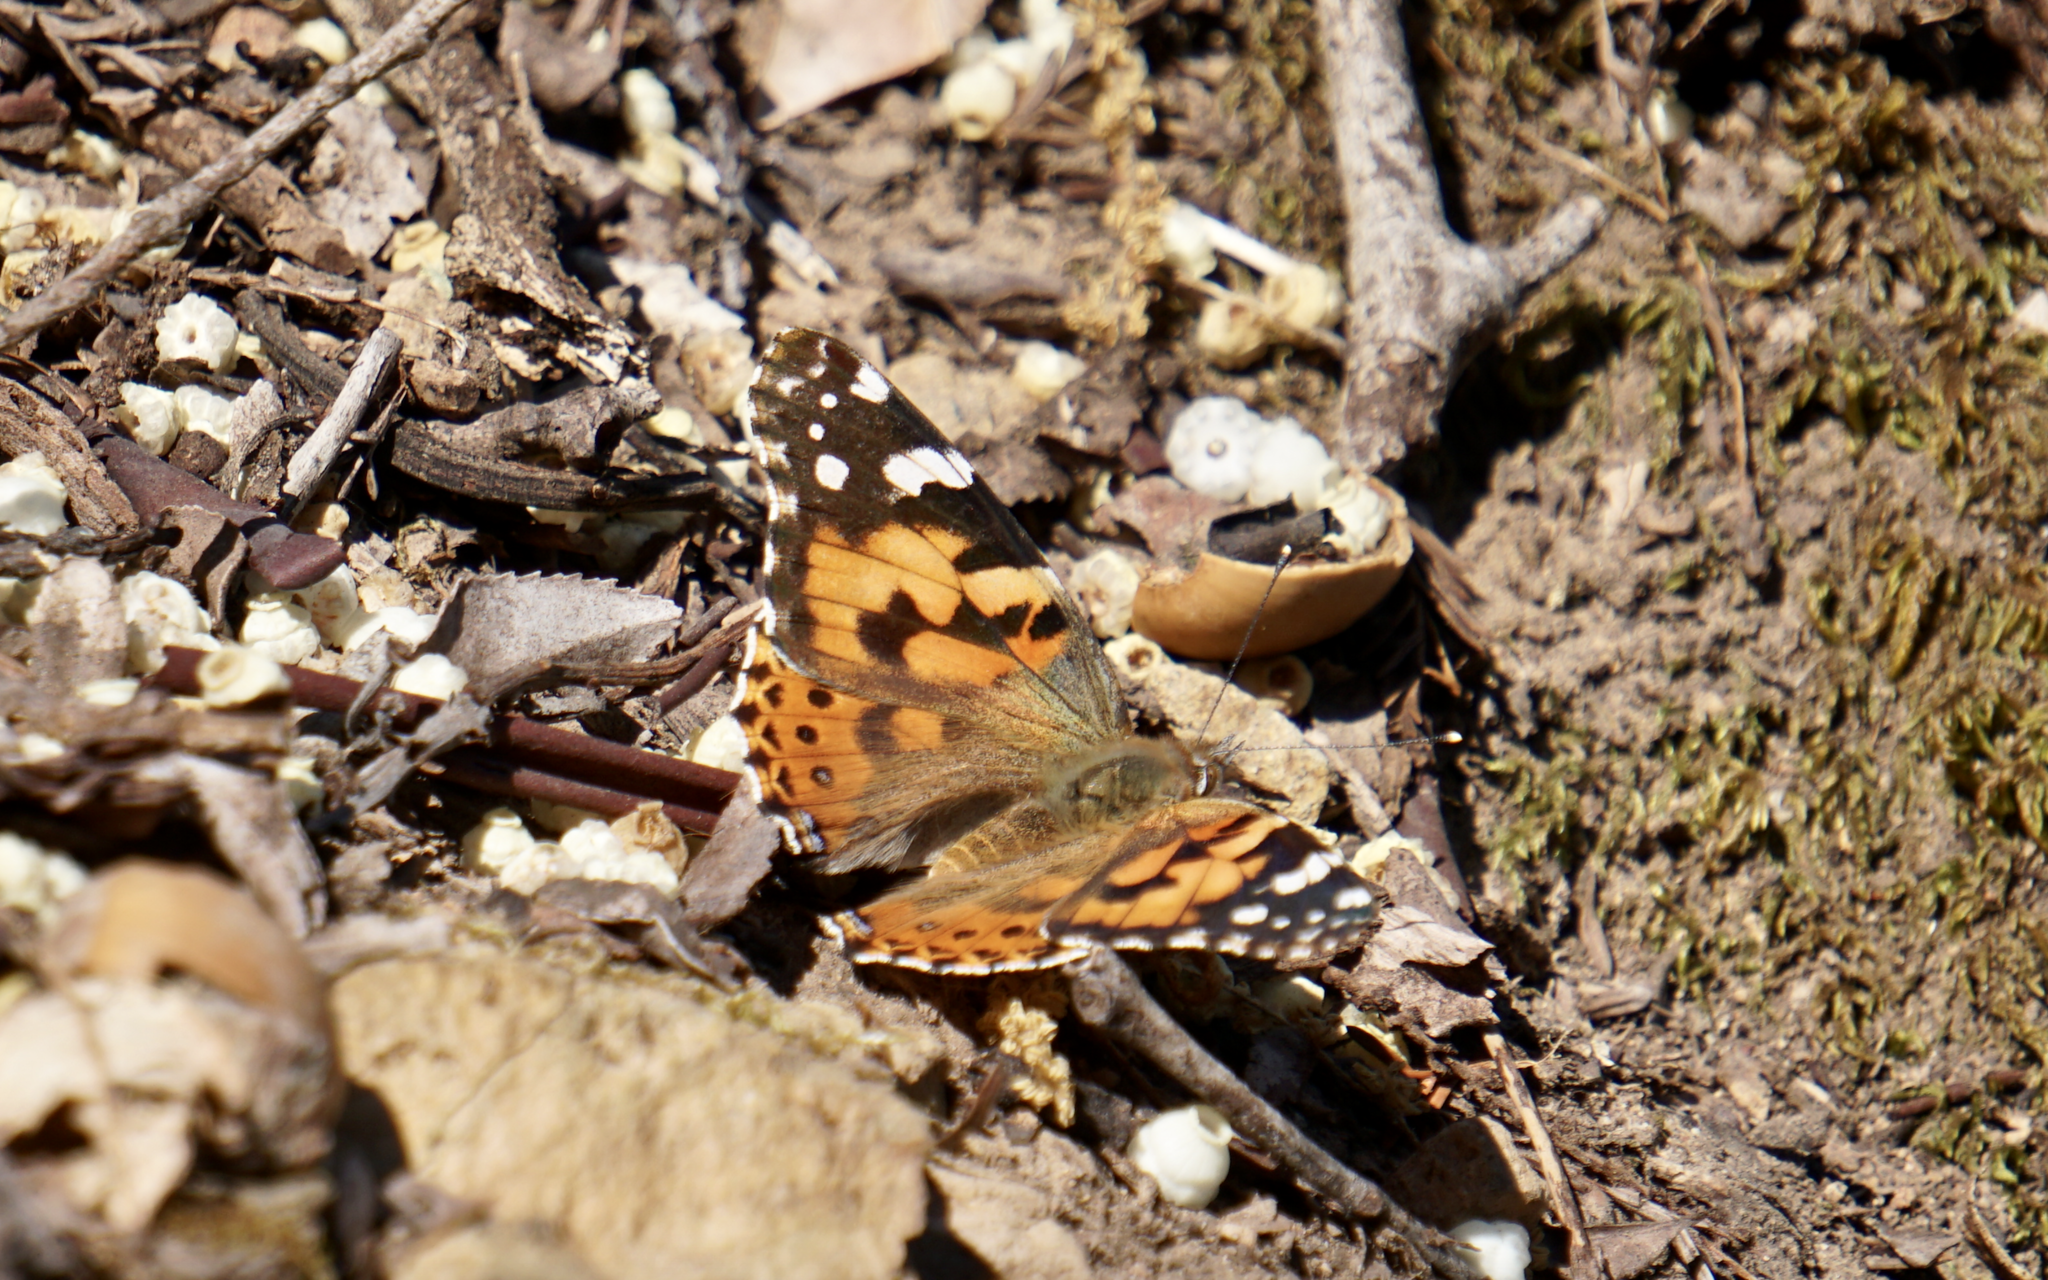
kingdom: Animalia
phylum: Arthropoda
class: Insecta
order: Lepidoptera
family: Nymphalidae
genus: Vanessa
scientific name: Vanessa cardui
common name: Painted lady
